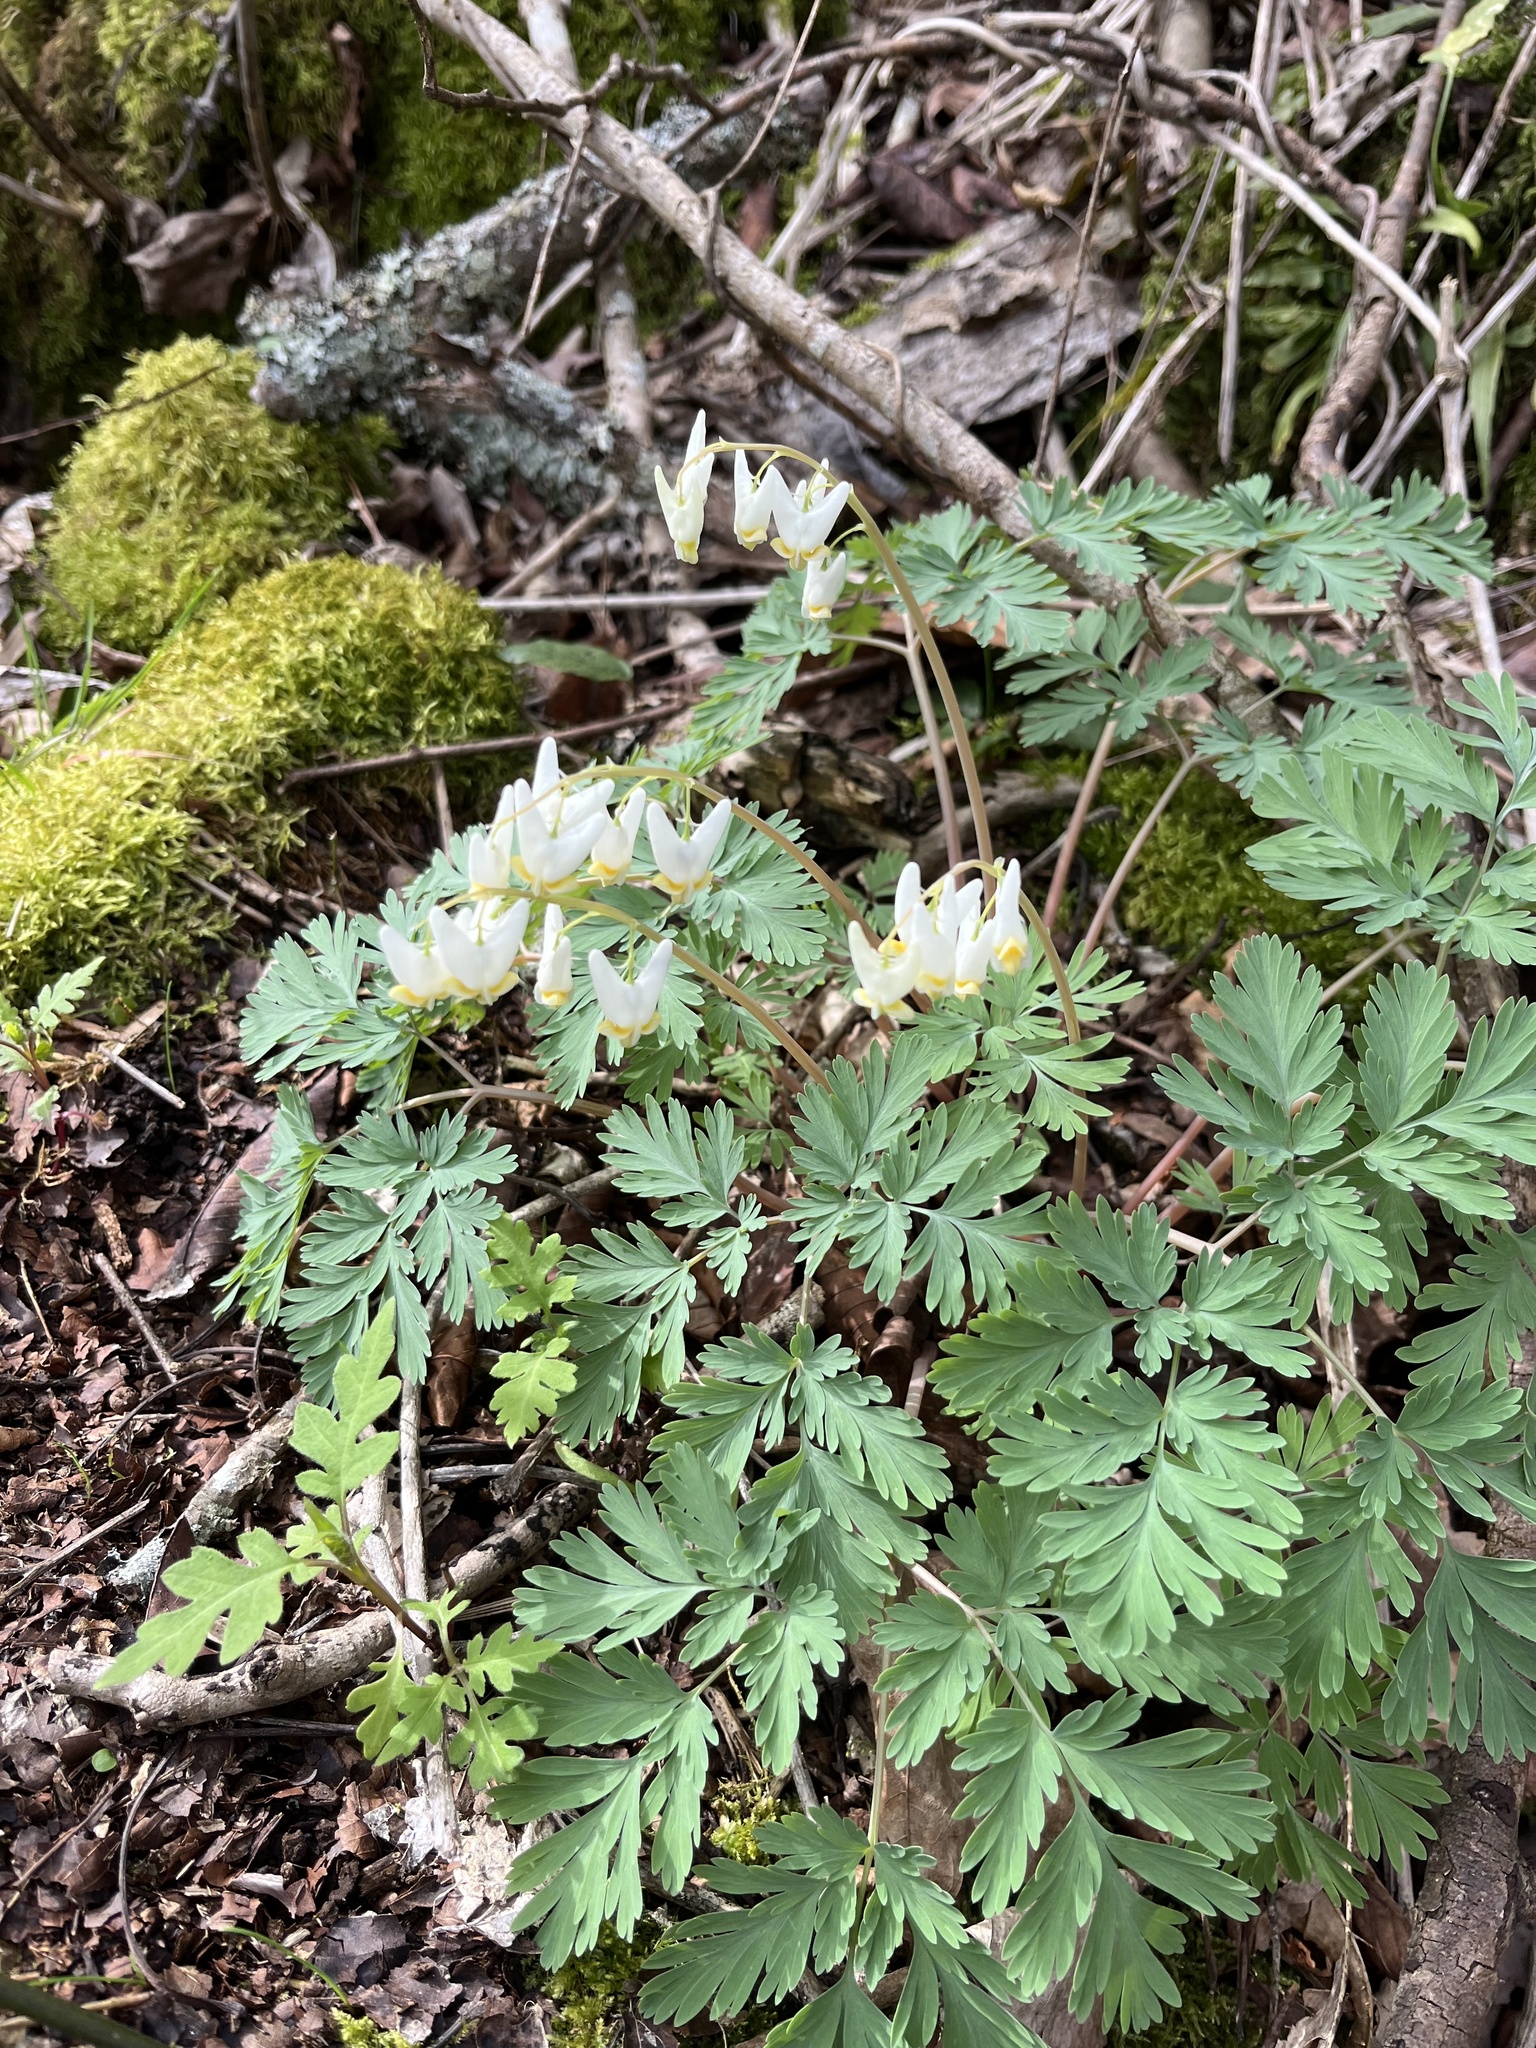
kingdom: Plantae
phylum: Tracheophyta
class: Magnoliopsida
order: Ranunculales
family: Papaveraceae
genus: Dicentra
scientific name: Dicentra cucullaria
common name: Dutchman's breeches
